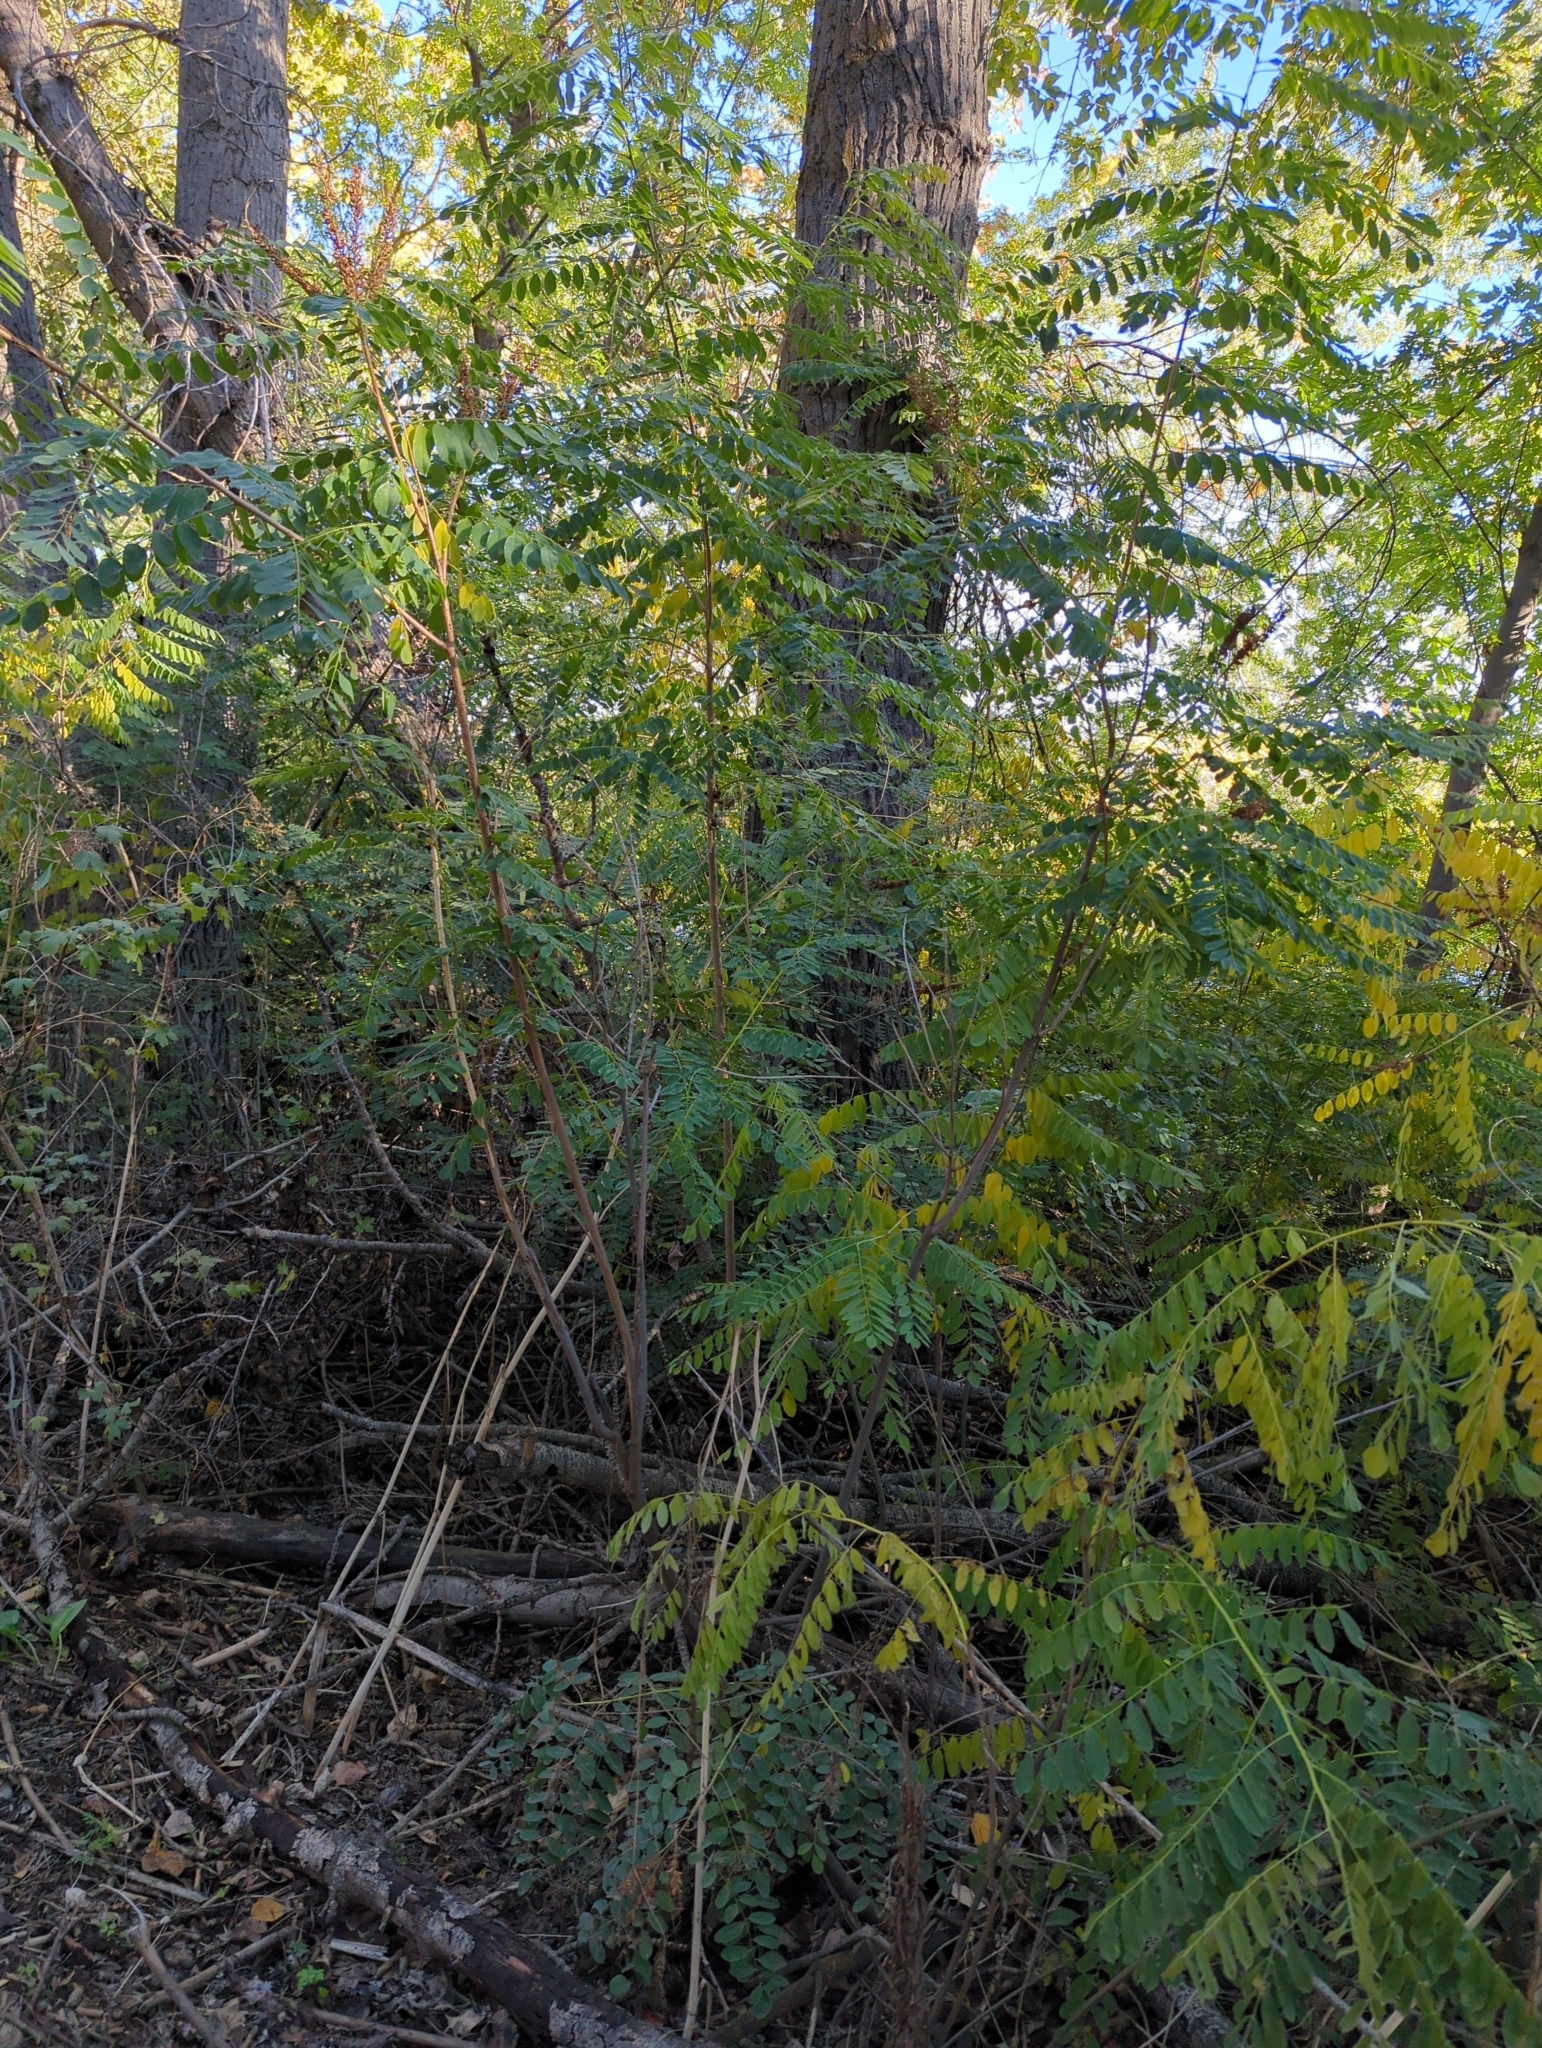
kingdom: Plantae
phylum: Tracheophyta
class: Magnoliopsida
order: Fabales
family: Fabaceae
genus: Amorpha
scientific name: Amorpha fruticosa
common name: False indigo
